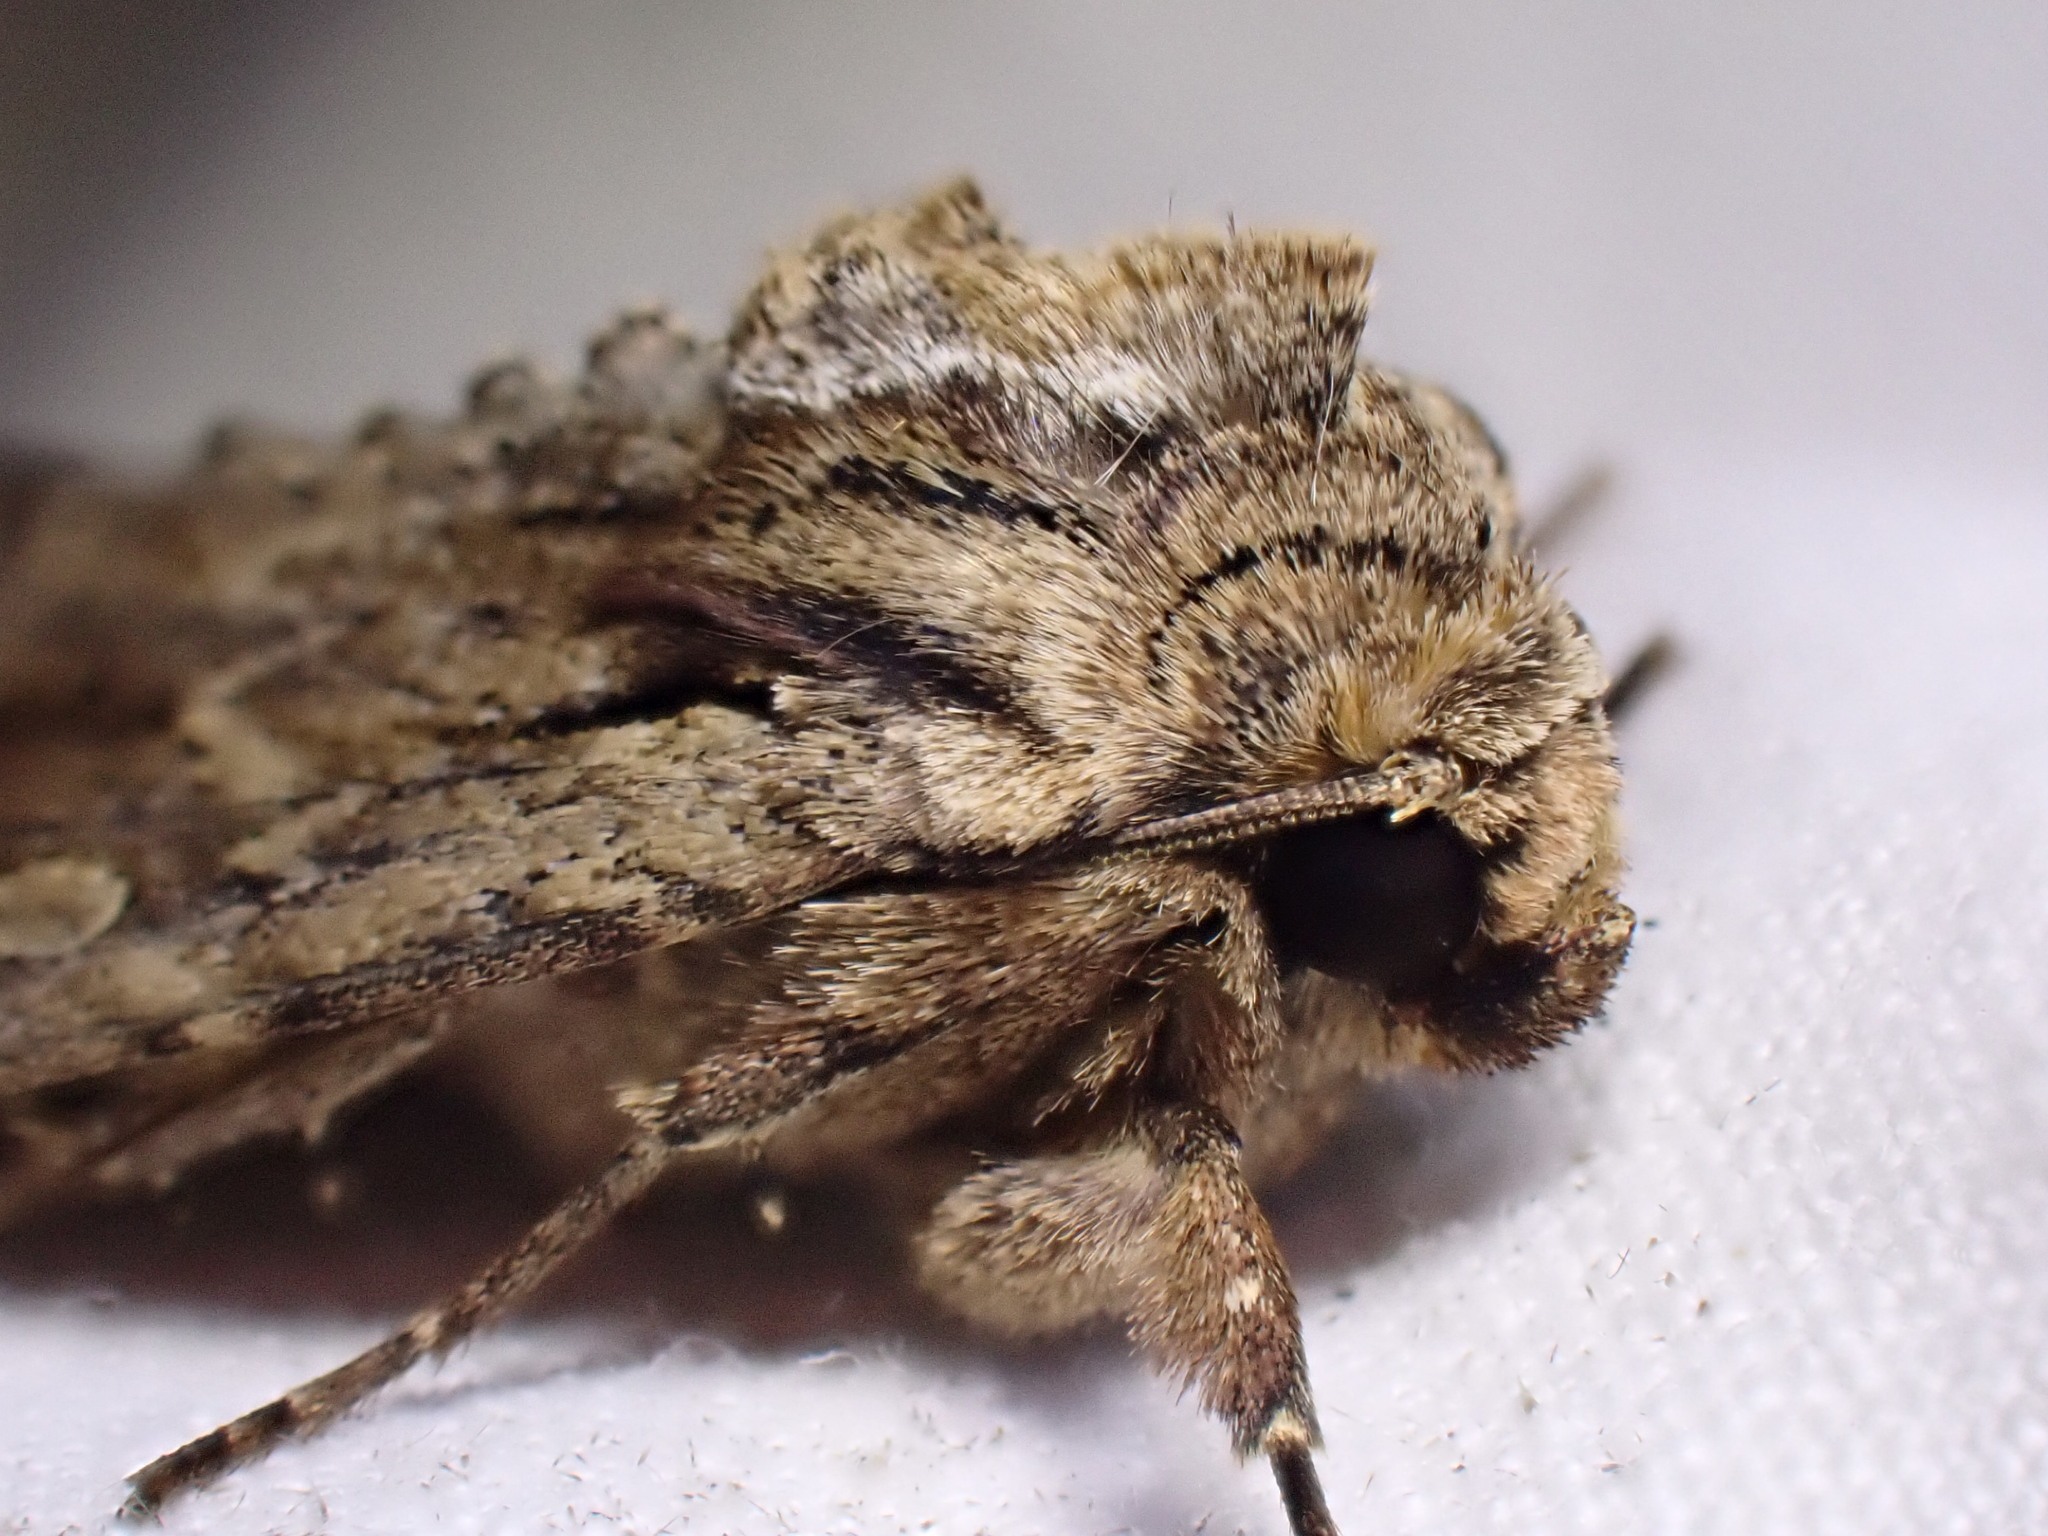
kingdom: Animalia
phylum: Arthropoda
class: Insecta
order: Lepidoptera
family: Noctuidae
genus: Apamea
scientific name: Apamea monoglypha
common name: Dark arches
